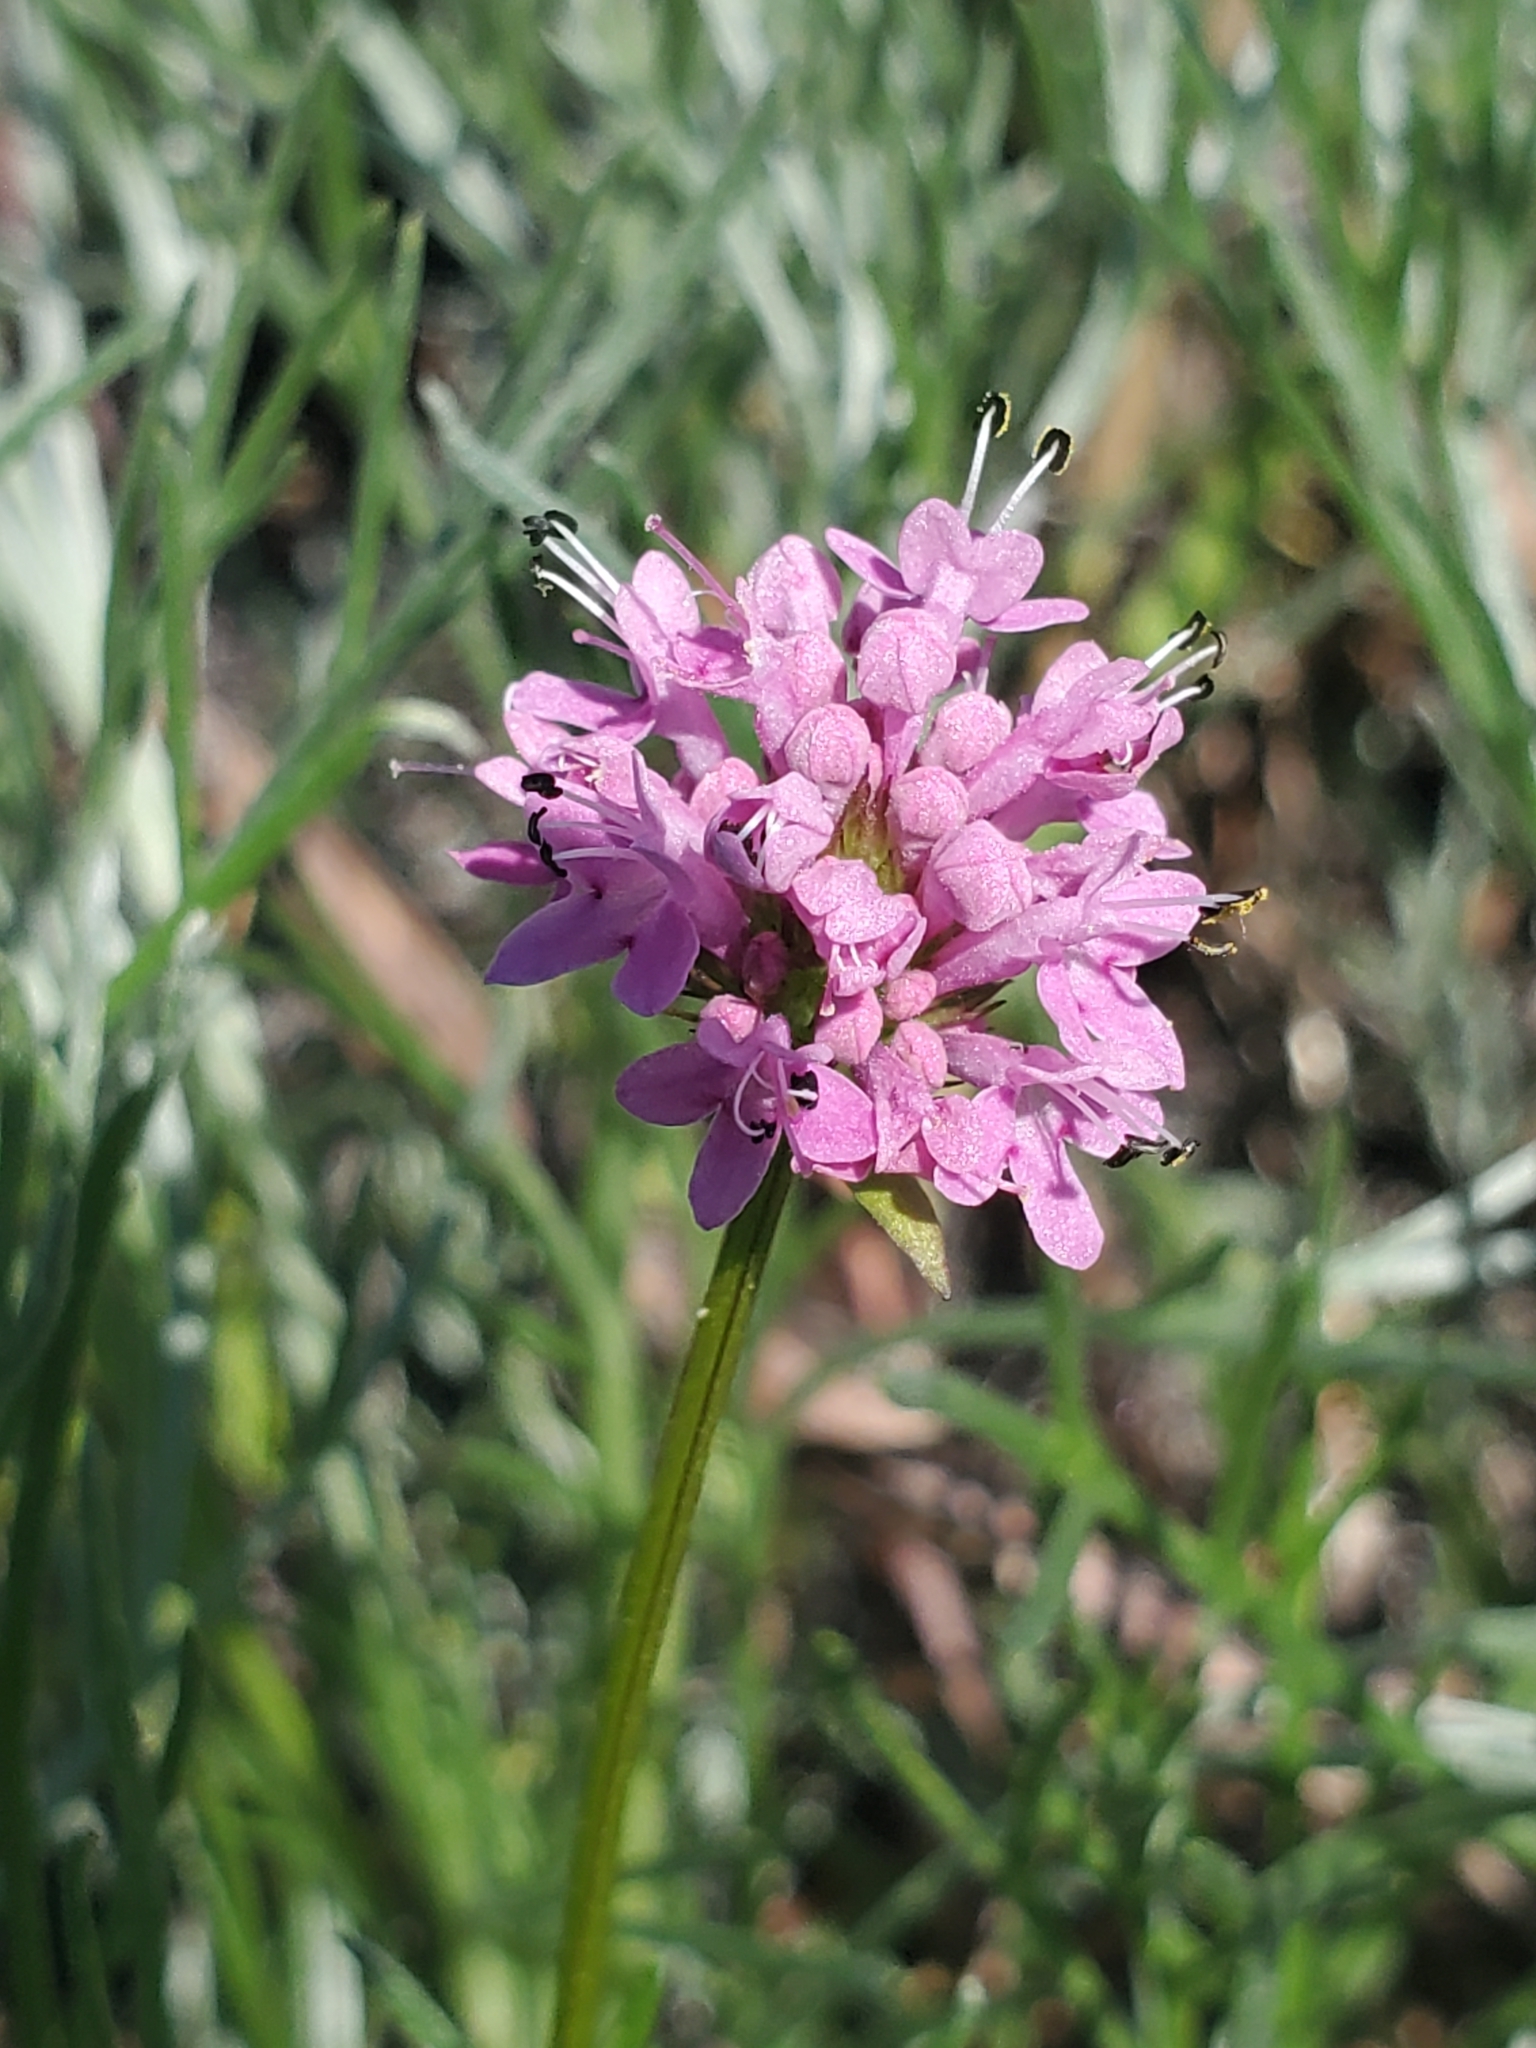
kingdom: Plantae
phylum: Tracheophyta
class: Magnoliopsida
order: Dipsacales
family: Caprifoliaceae
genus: Plectritis
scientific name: Plectritis congesta
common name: Pink plectritis
